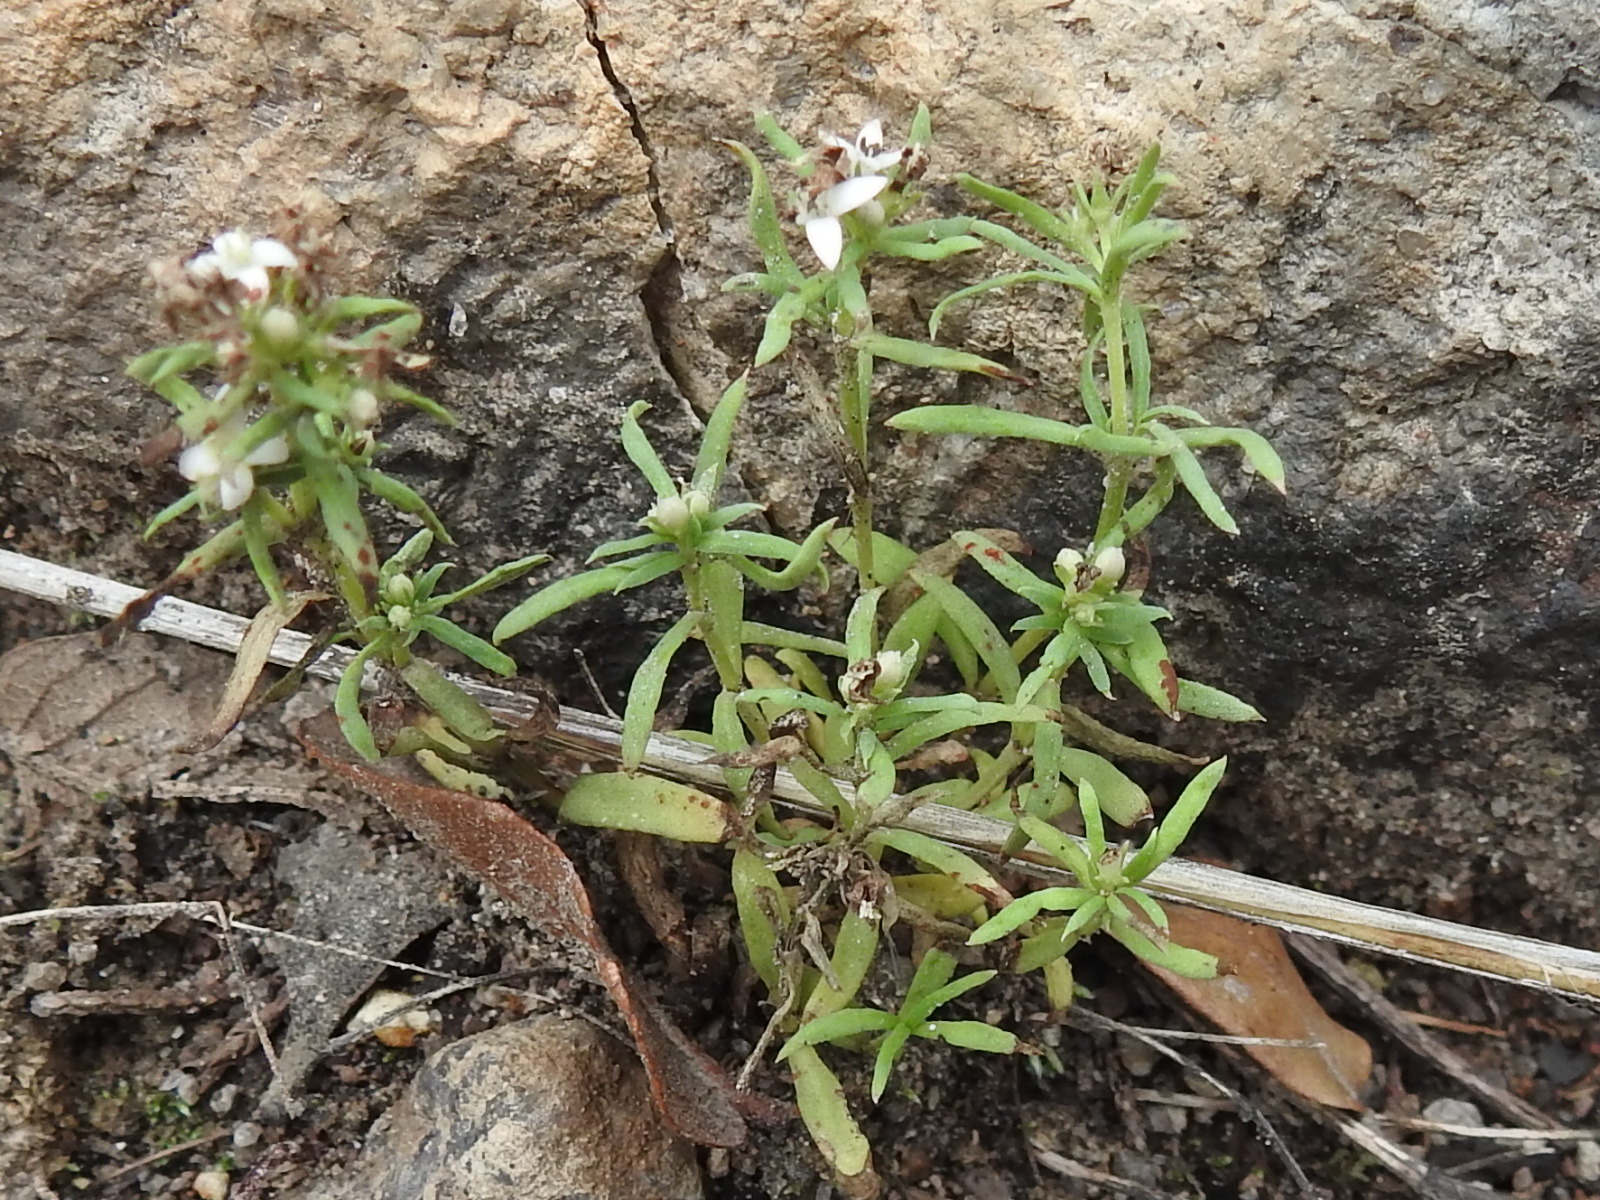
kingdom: Plantae
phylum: Tracheophyta
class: Magnoliopsida
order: Gentianales
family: Rubiaceae
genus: Houstonia
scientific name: Houstonia wrightii
